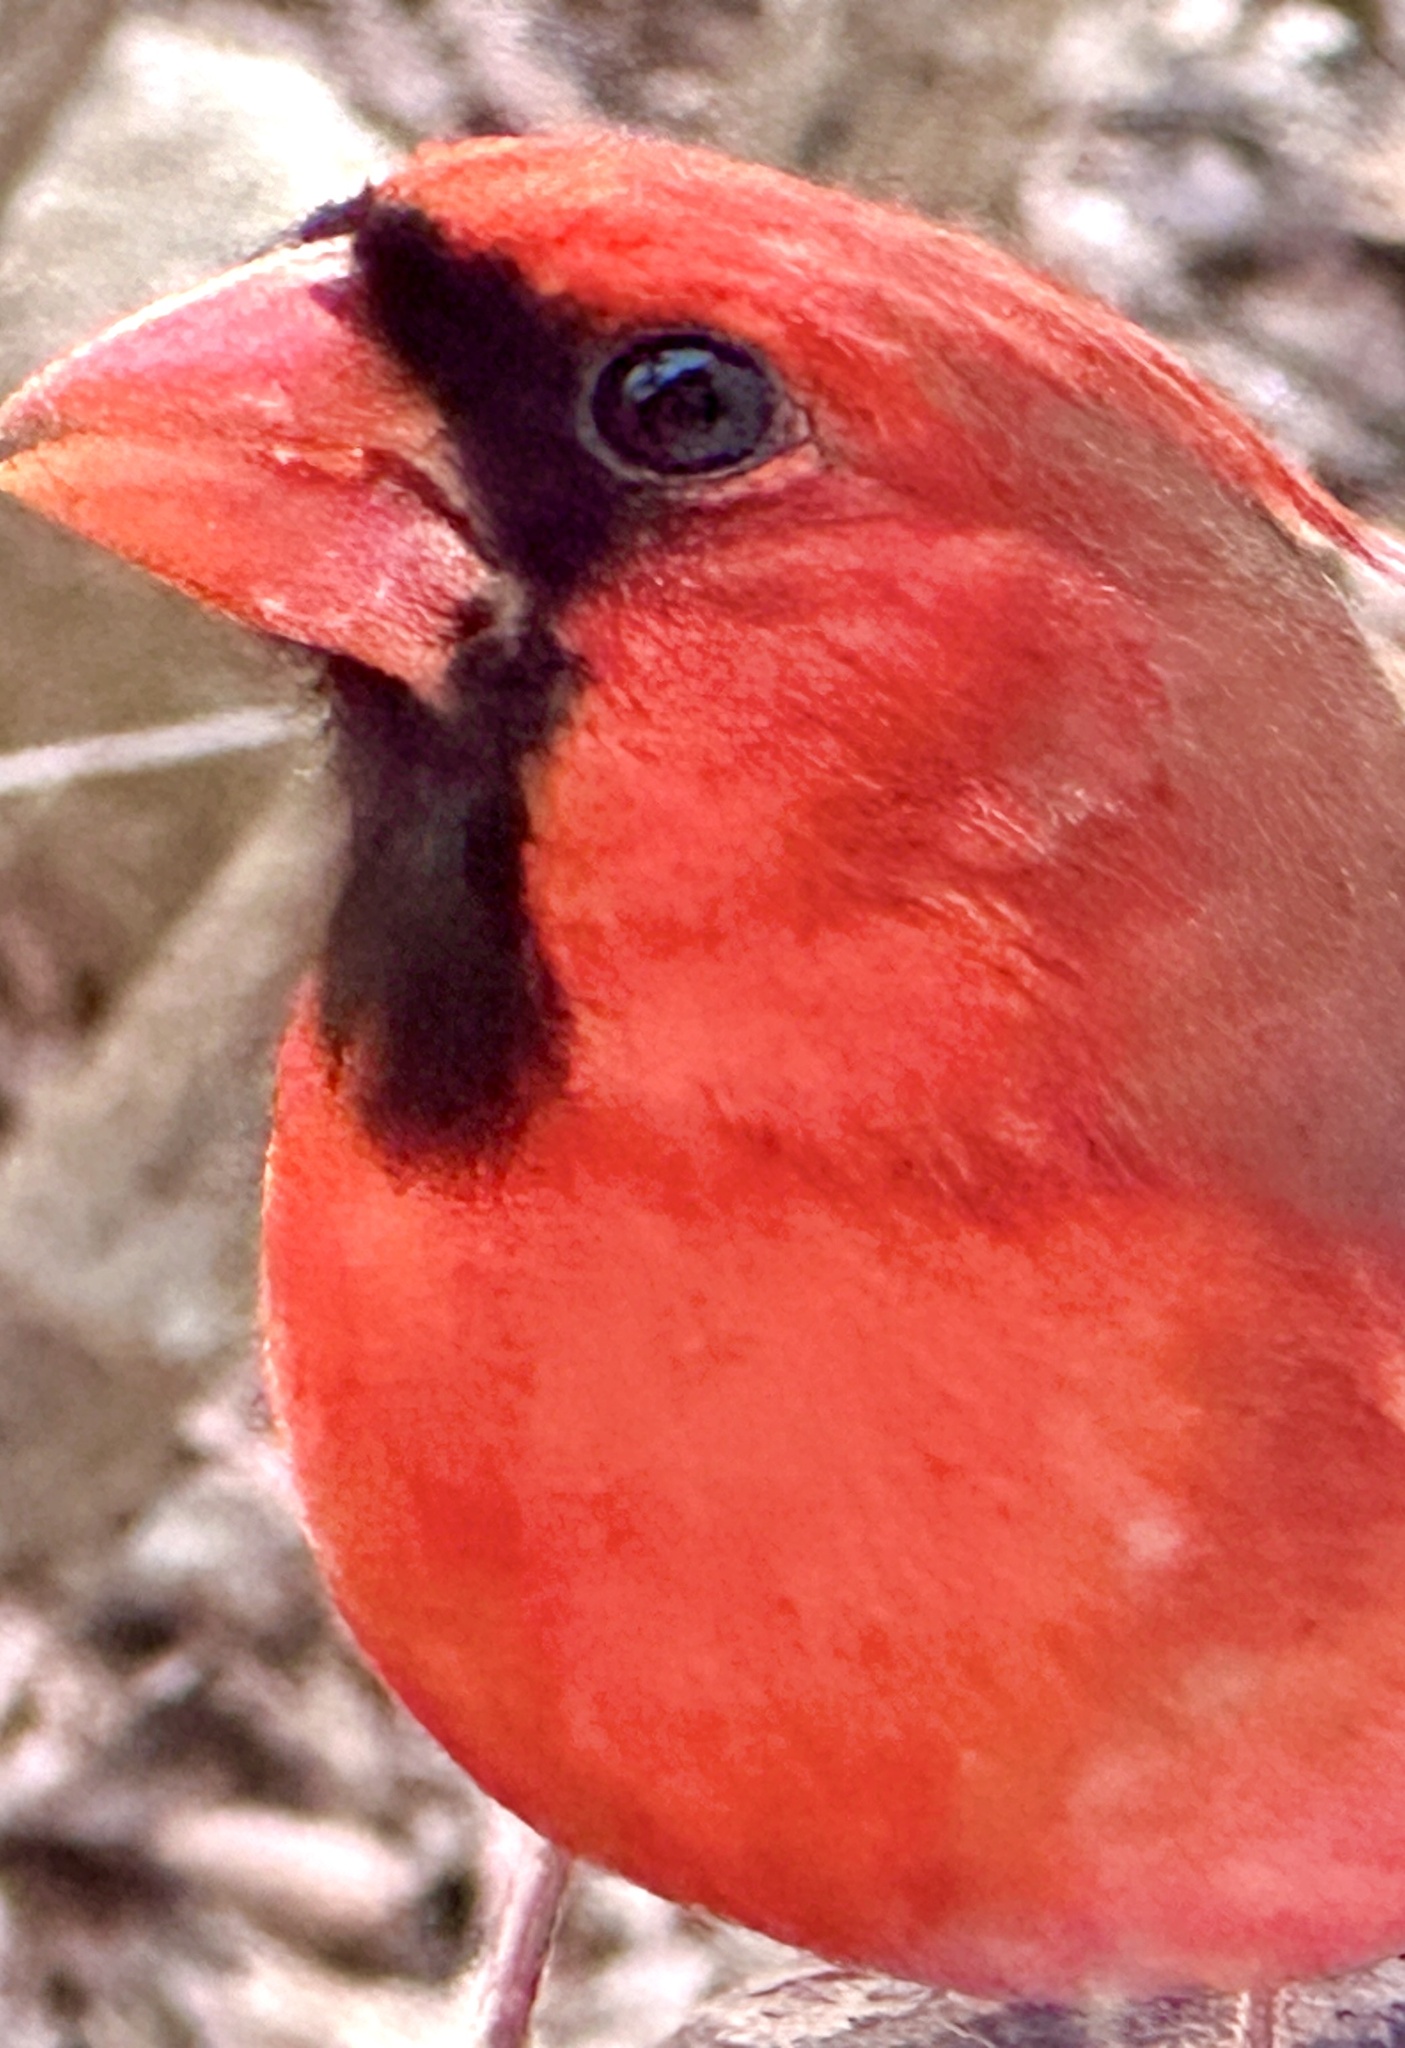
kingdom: Animalia
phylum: Chordata
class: Aves
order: Passeriformes
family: Cardinalidae
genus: Cardinalis
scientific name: Cardinalis cardinalis
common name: Northern cardinal
